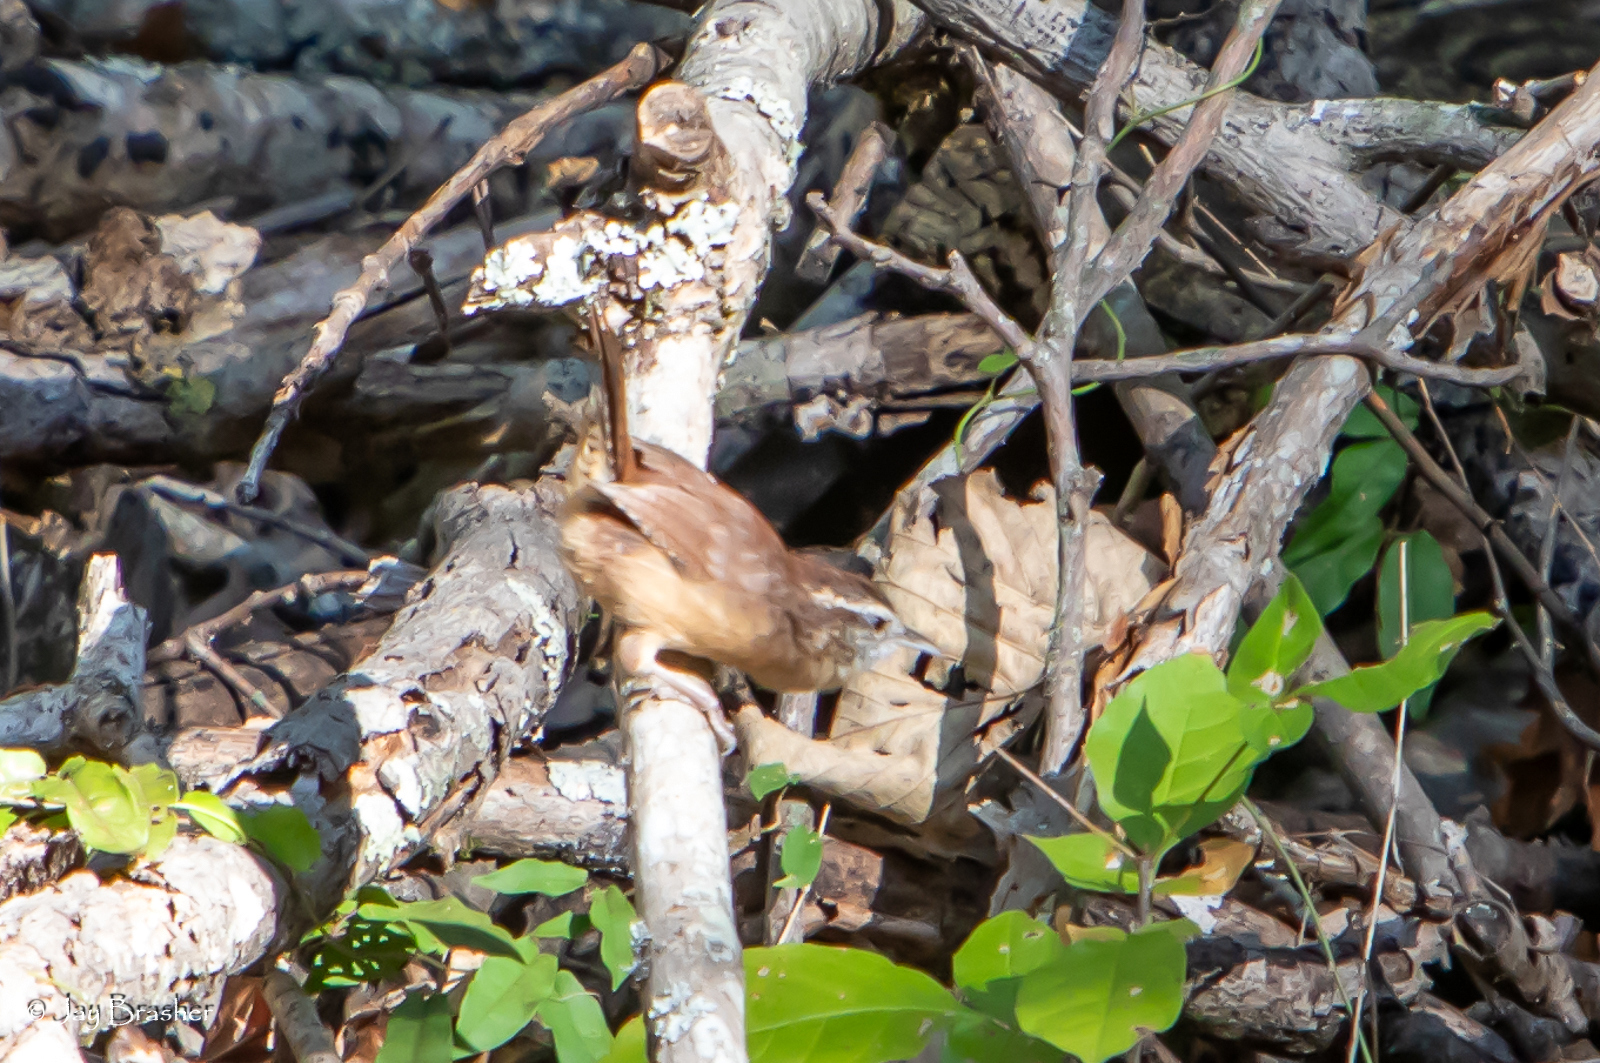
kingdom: Animalia
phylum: Chordata
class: Aves
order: Passeriformes
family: Troglodytidae
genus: Thryothorus
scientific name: Thryothorus ludovicianus
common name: Carolina wren
